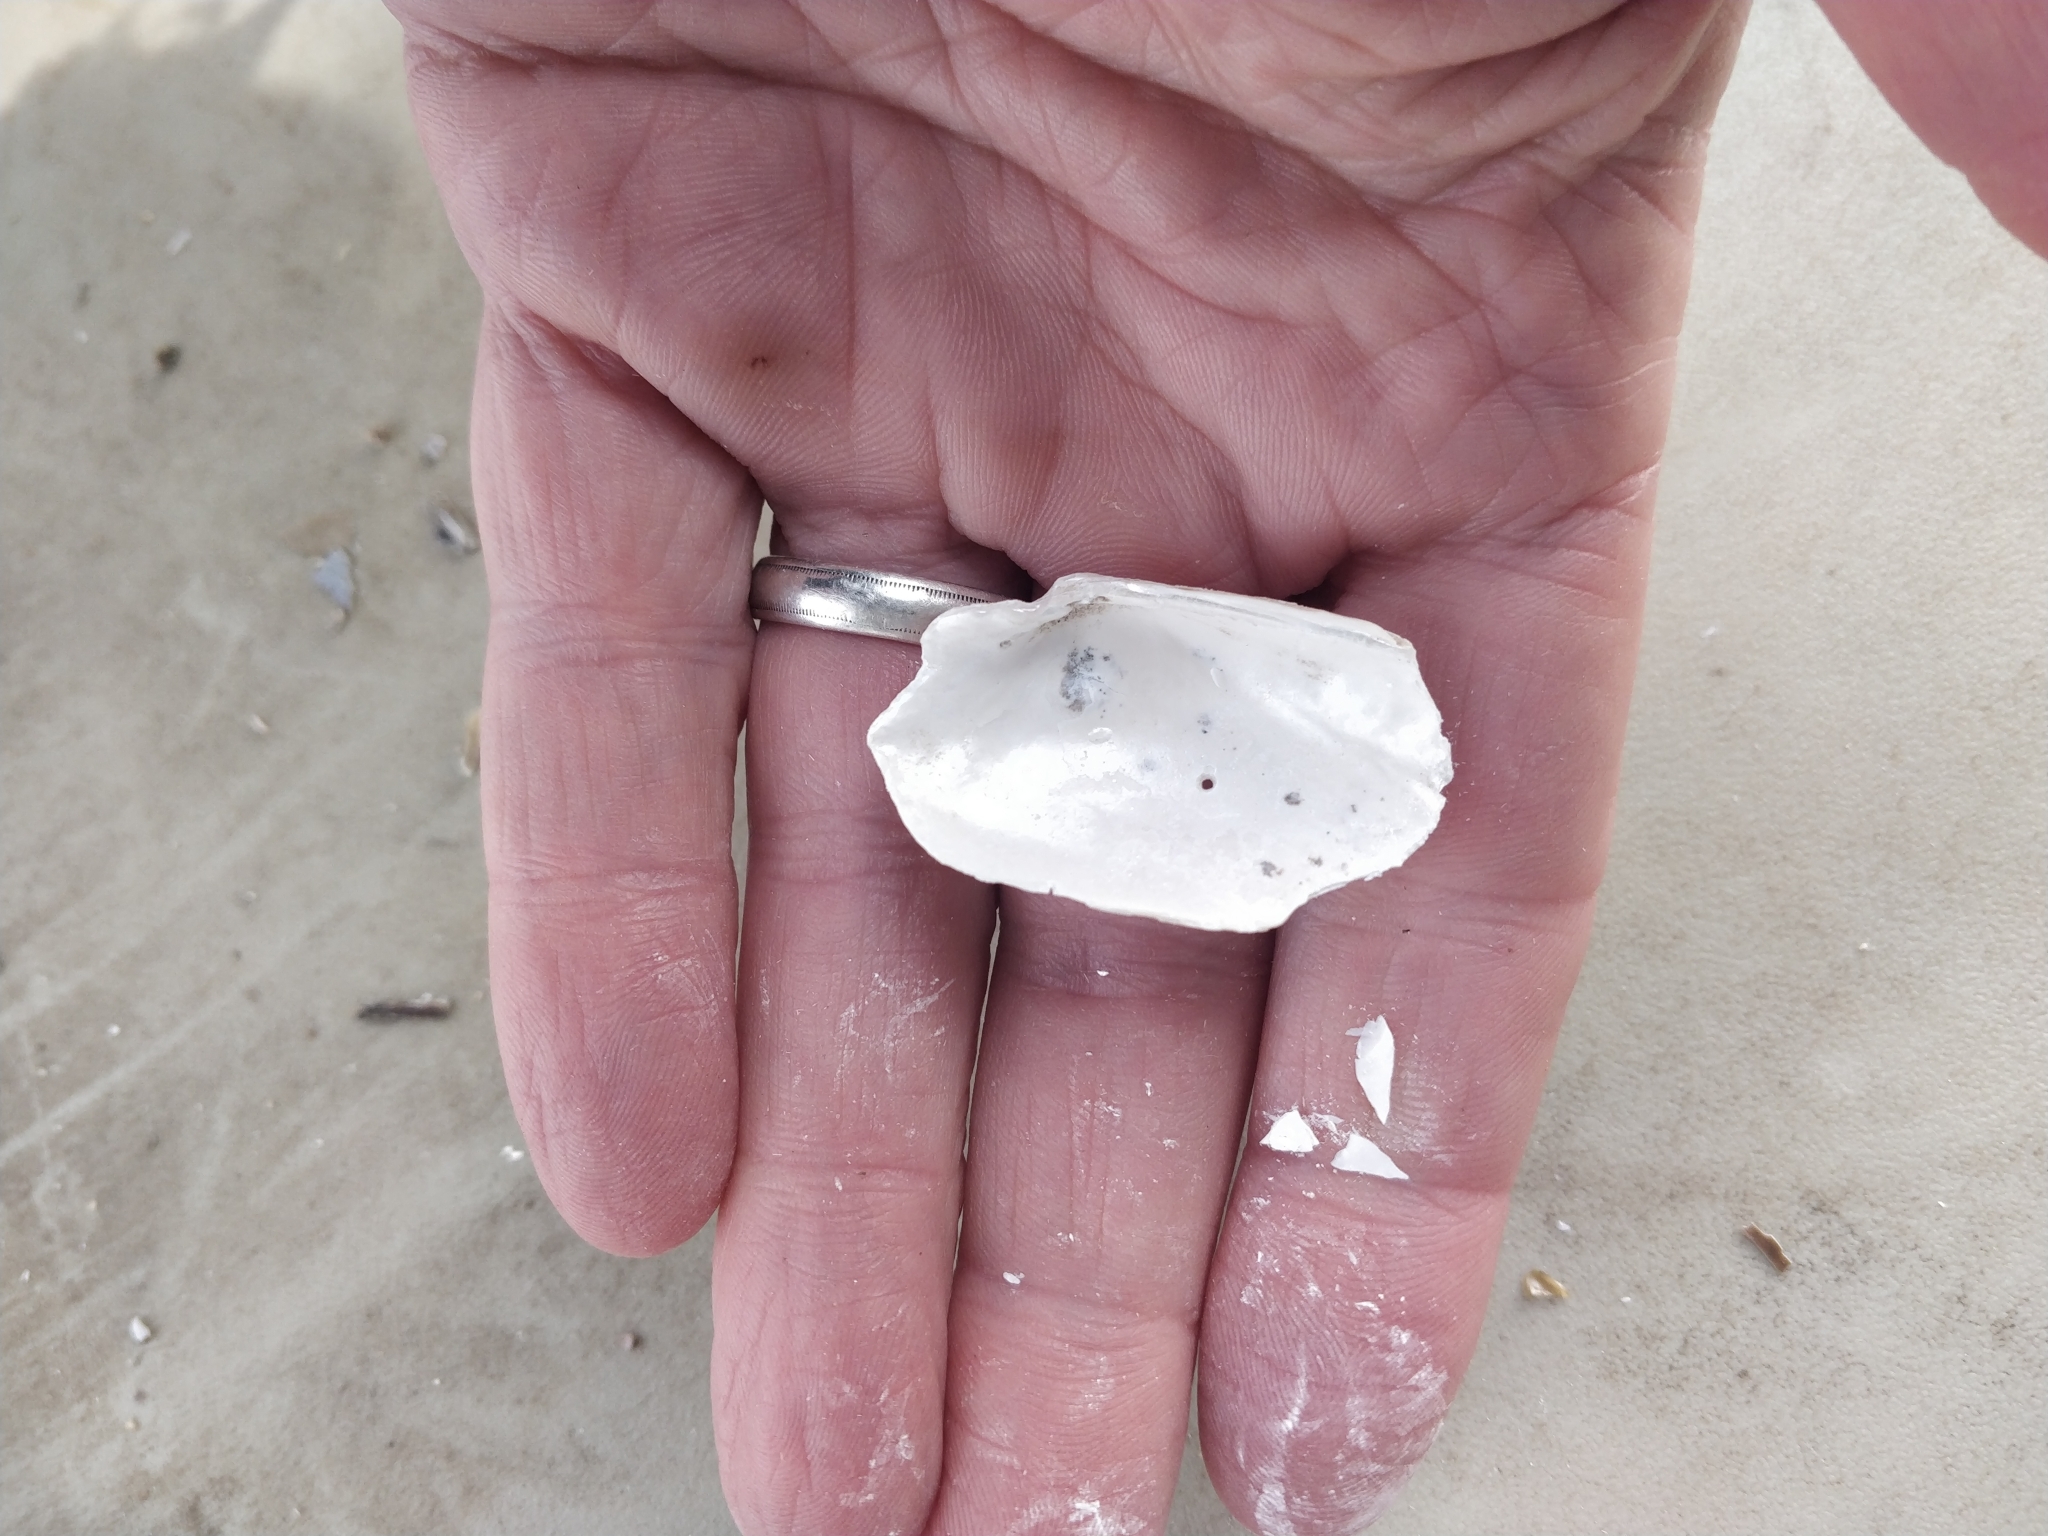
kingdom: Animalia
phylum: Mollusca
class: Bivalvia
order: Unionida
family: Unionidae
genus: Strophitus
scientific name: Strophitus undulatus
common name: Creeper
